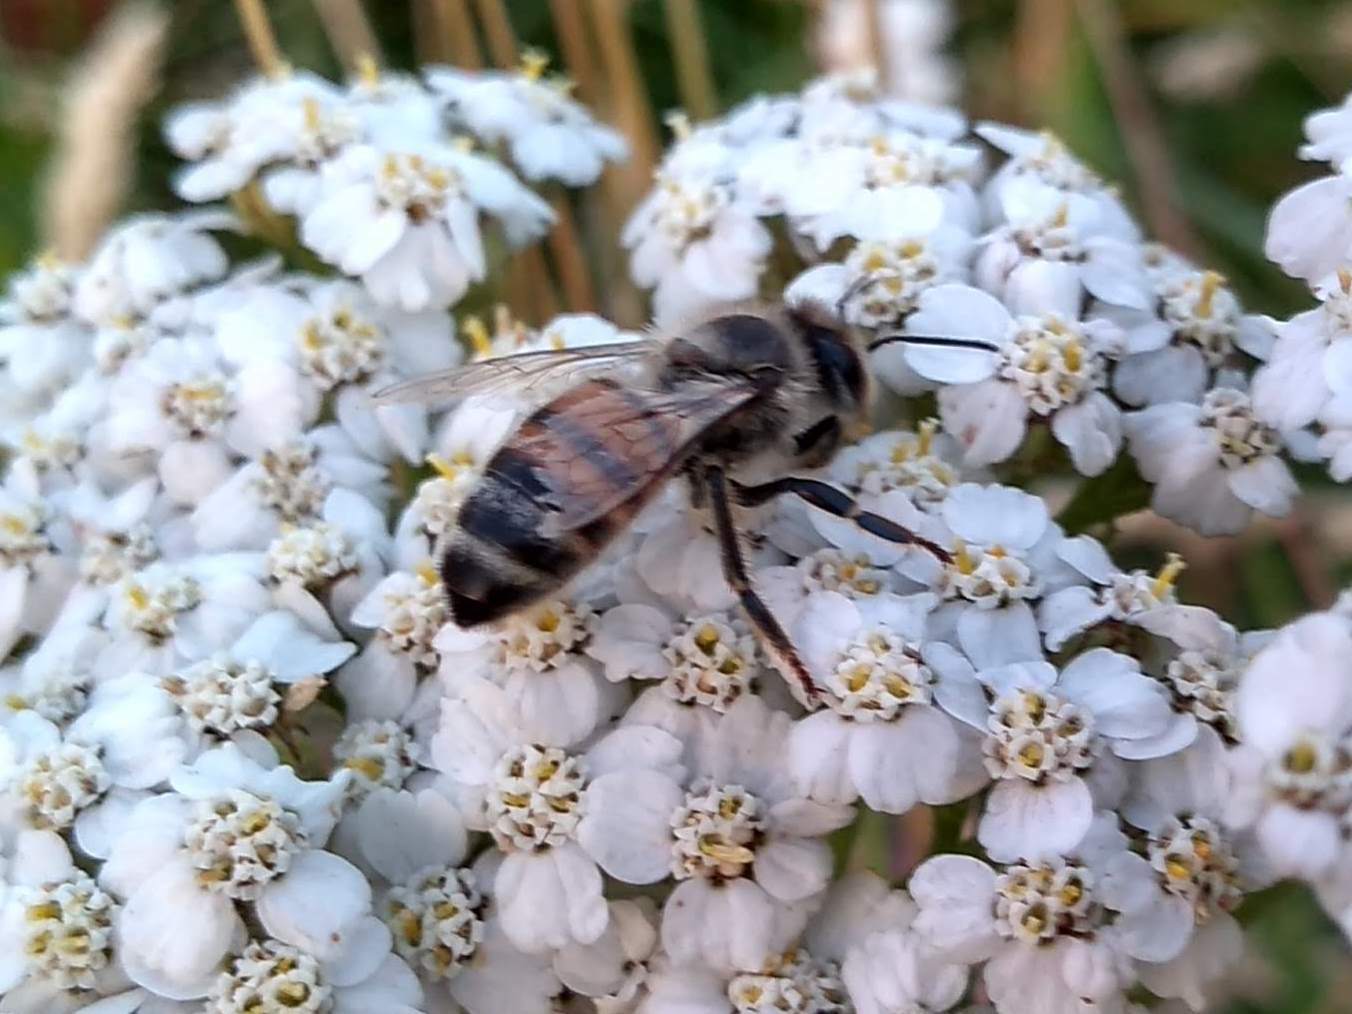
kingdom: Animalia
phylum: Arthropoda
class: Insecta
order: Hymenoptera
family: Apidae
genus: Apis
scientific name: Apis mellifera
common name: Honey bee
